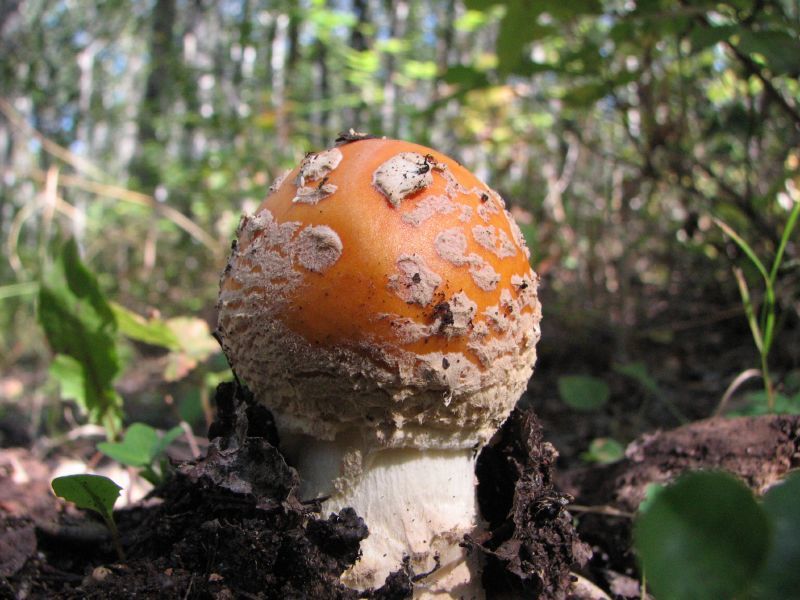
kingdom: Fungi
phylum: Basidiomycota
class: Agaricomycetes
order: Agaricales
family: Amanitaceae
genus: Amanita
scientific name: Amanita muscaria
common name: Fly agaric
